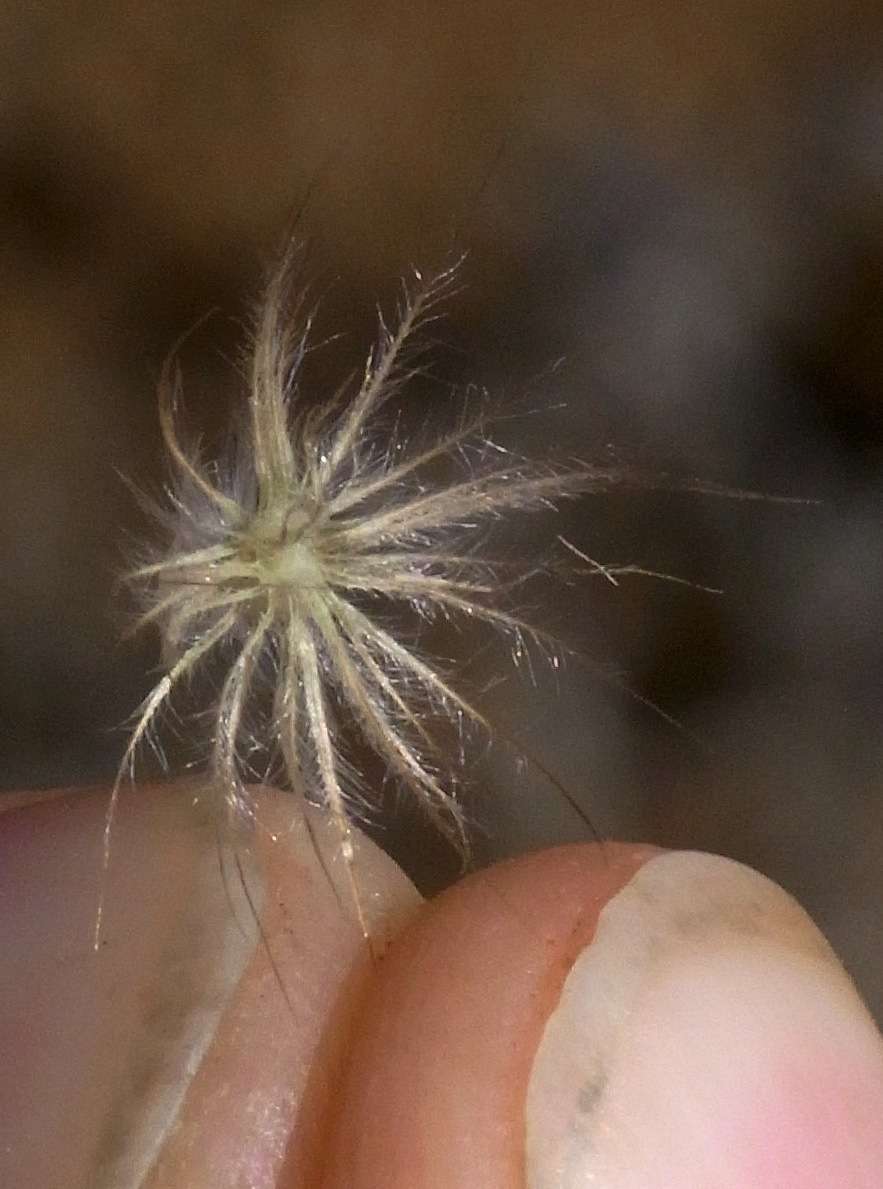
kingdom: Plantae
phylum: Tracheophyta
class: Liliopsida
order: Poales
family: Poaceae
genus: Enneapogon
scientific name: Enneapogon avenaceus
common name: Hairy oat grass
